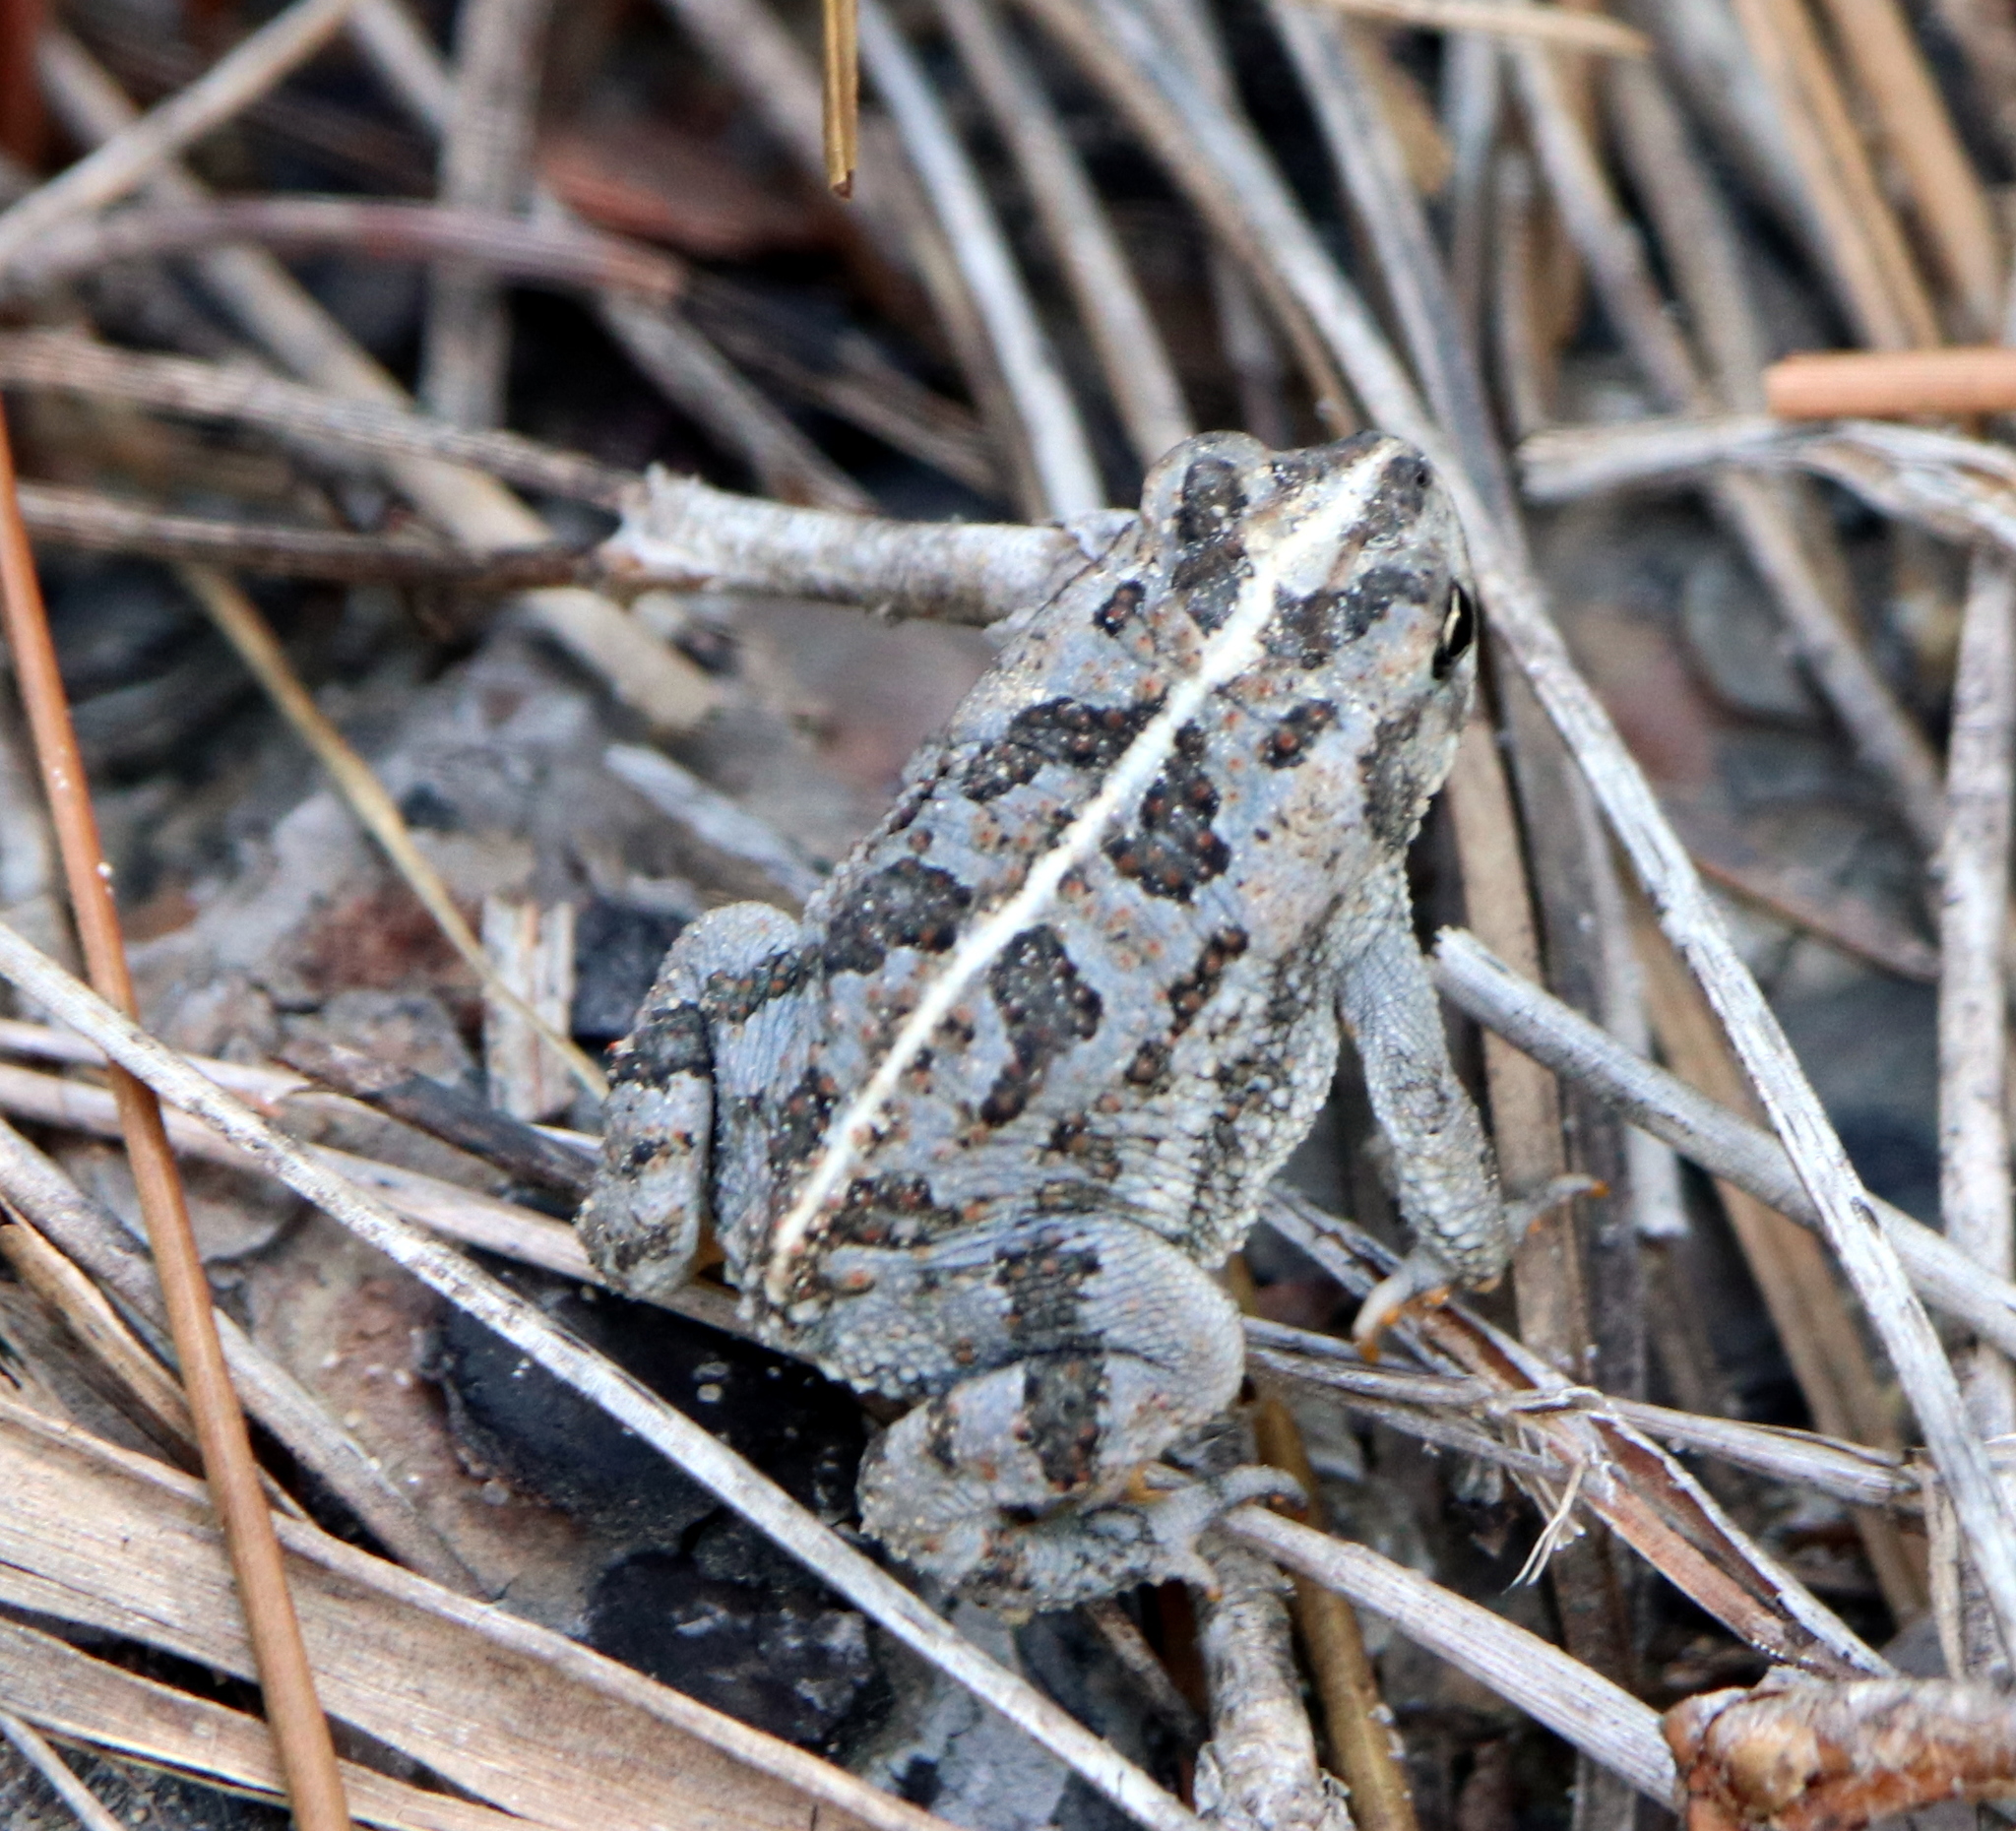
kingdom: Animalia
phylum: Chordata
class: Amphibia
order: Anura
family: Bufonidae
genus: Anaxyrus
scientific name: Anaxyrus quercicus
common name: Oak toad
